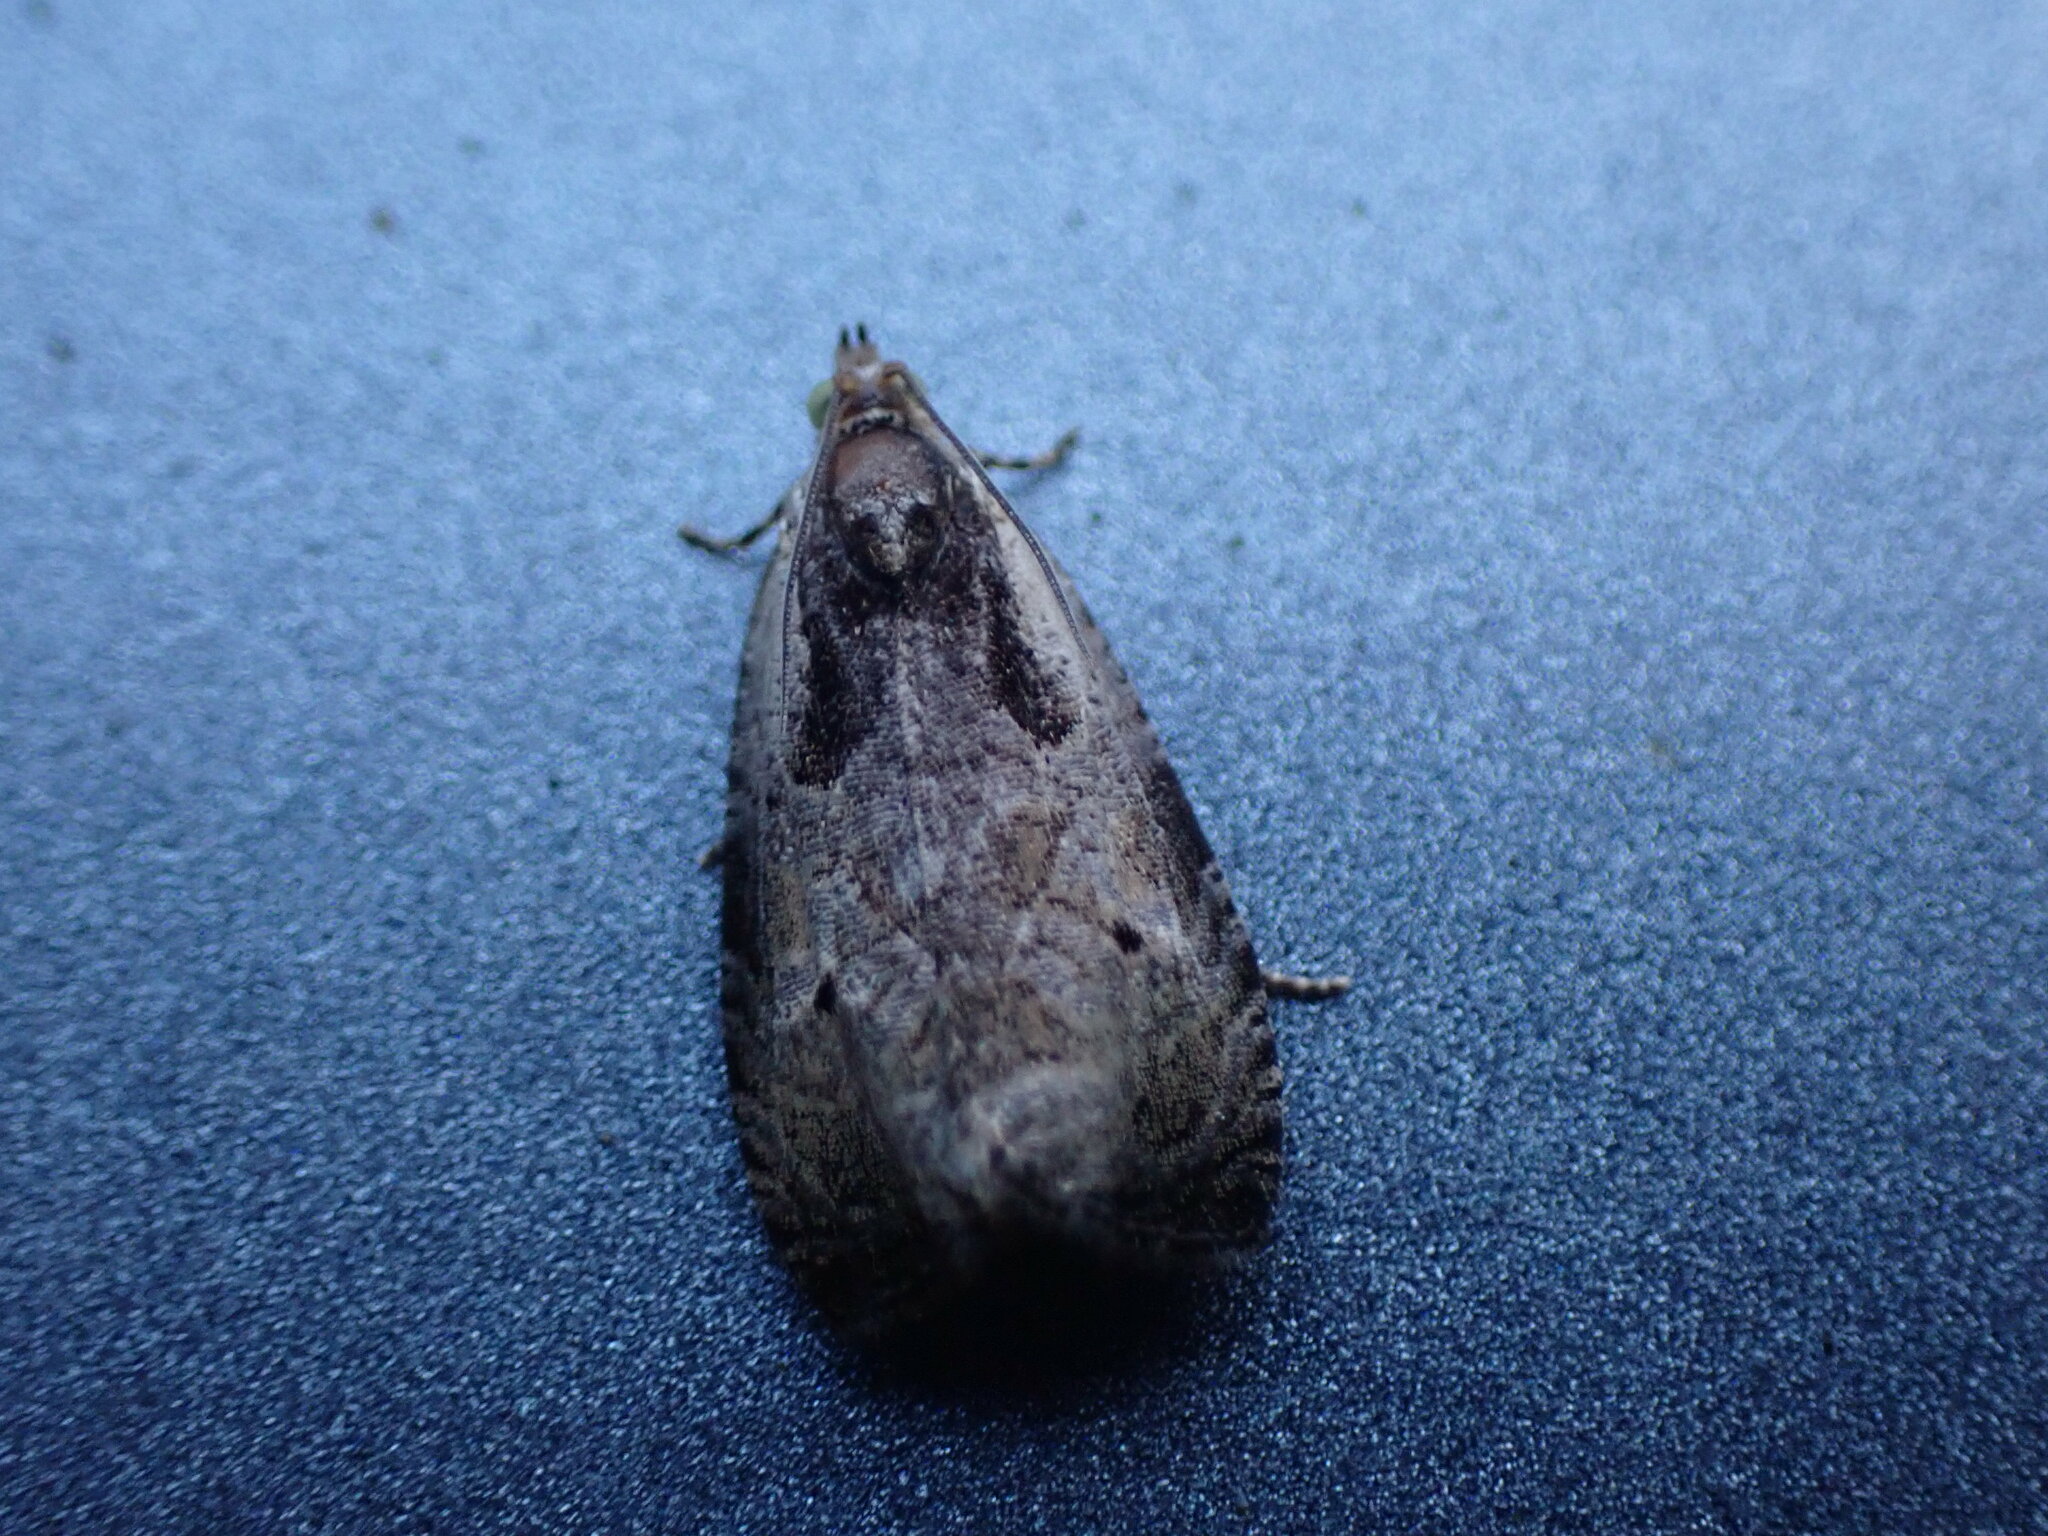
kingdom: Animalia
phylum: Arthropoda
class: Insecta
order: Lepidoptera
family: Tortricidae
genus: Olethreutes
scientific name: Olethreutes punctanum
